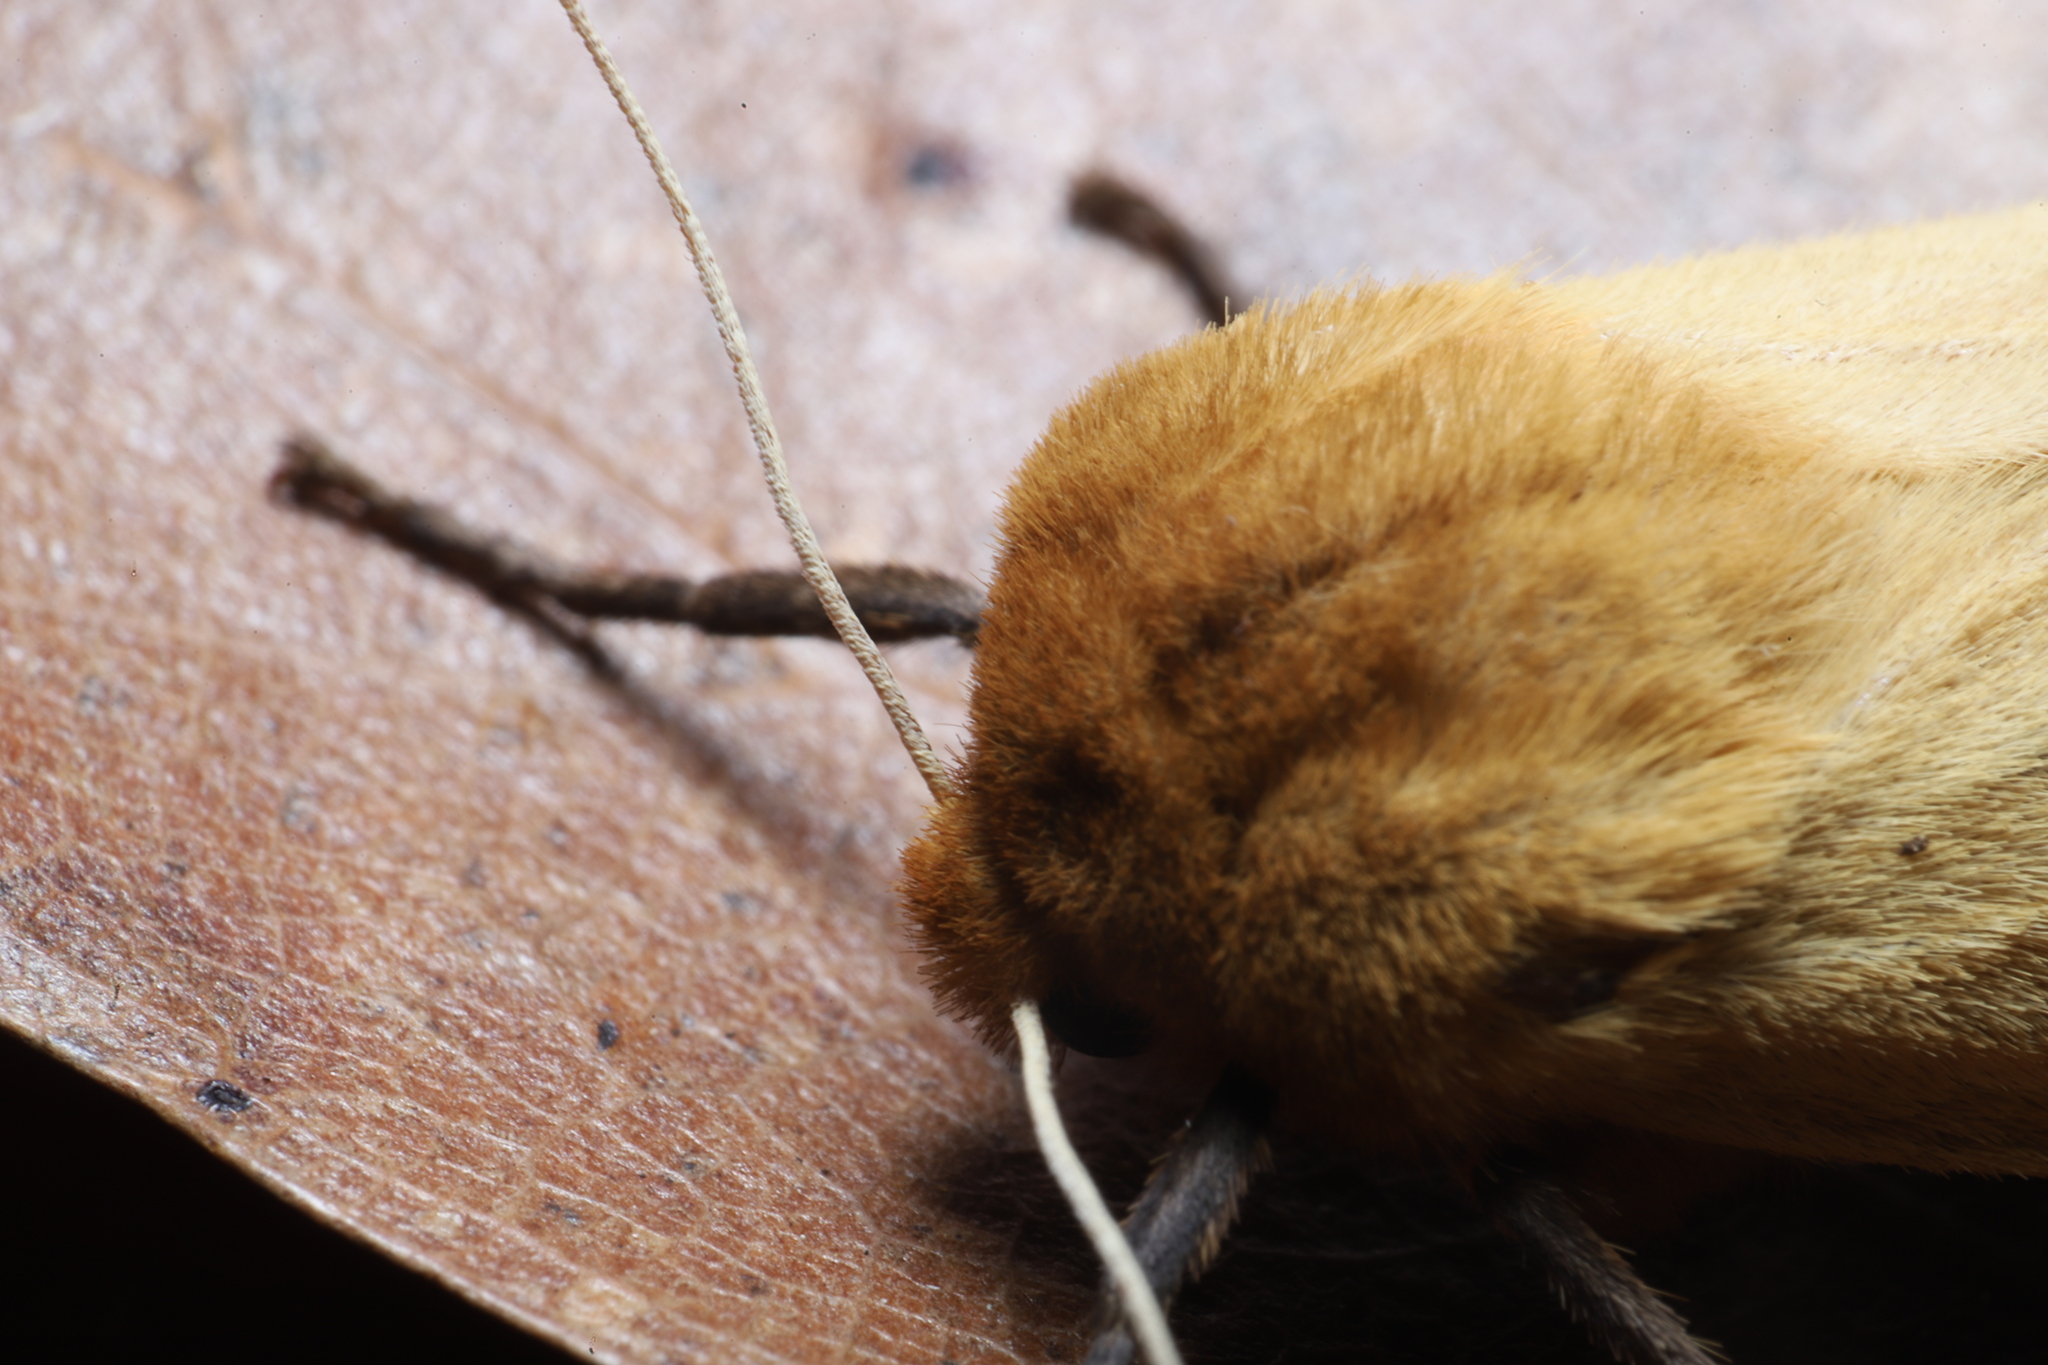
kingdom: Animalia
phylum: Arthropoda
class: Insecta
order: Lepidoptera
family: Erebidae
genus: Pyrrharctia
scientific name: Pyrrharctia isabella
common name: Isabella tiger moth
